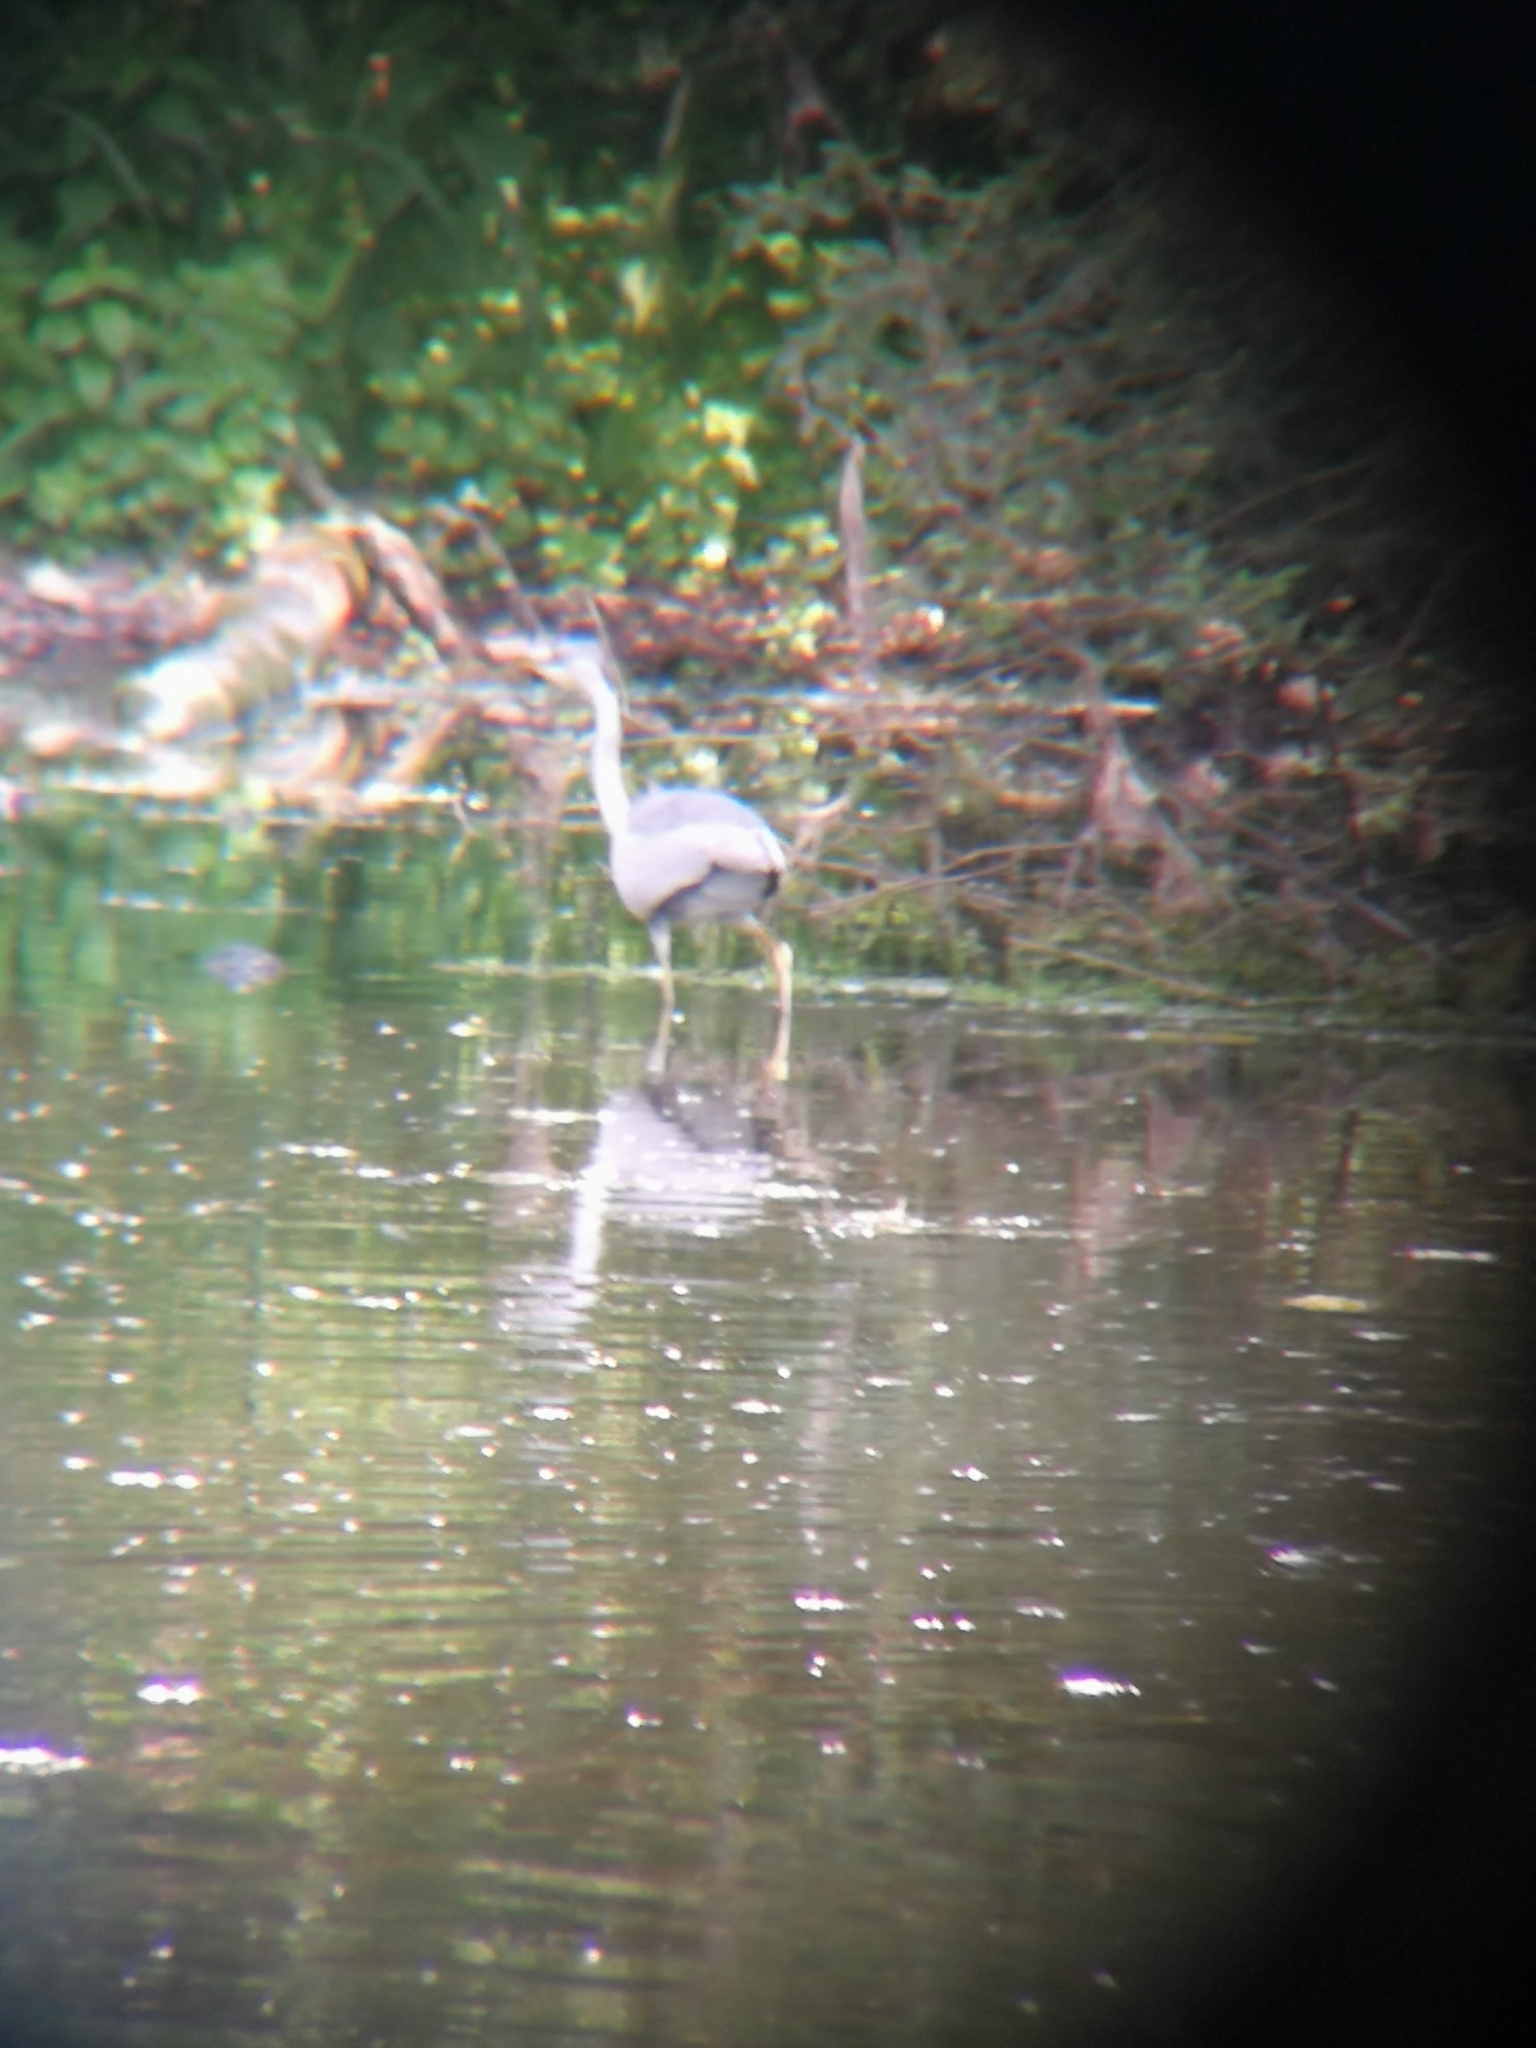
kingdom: Animalia
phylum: Chordata
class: Aves
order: Pelecaniformes
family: Ardeidae
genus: Ardea
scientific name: Ardea cinerea
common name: Grey heron
